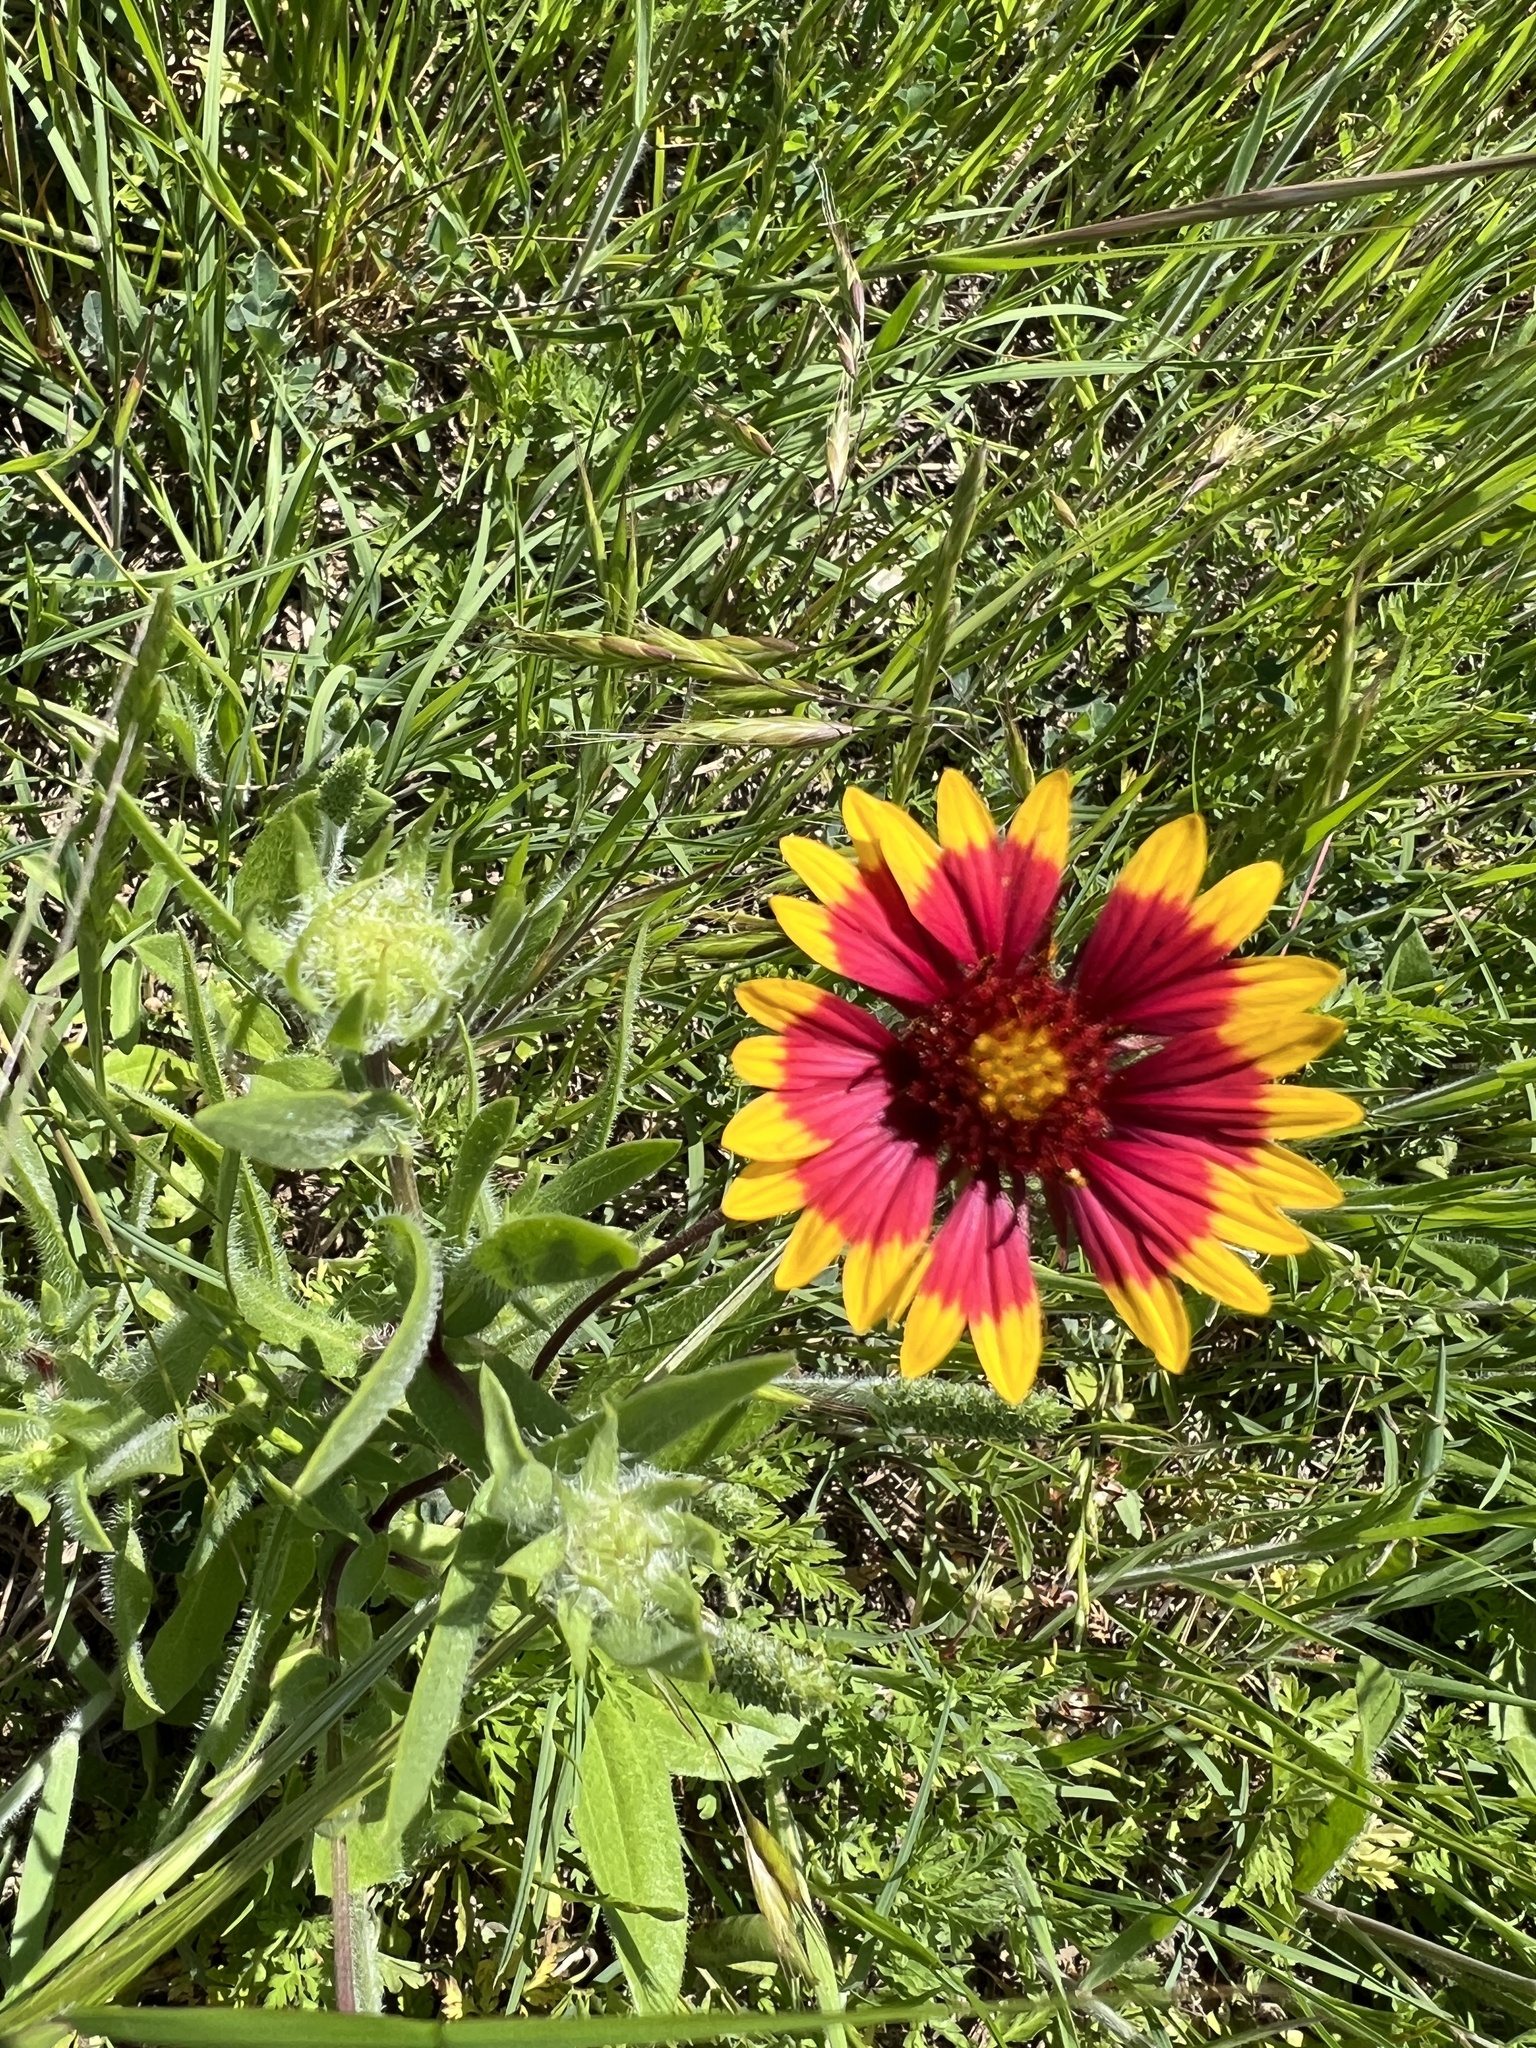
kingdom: Plantae
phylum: Tracheophyta
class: Magnoliopsida
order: Asterales
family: Asteraceae
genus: Gaillardia
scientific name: Gaillardia pulchella
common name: Firewheel
